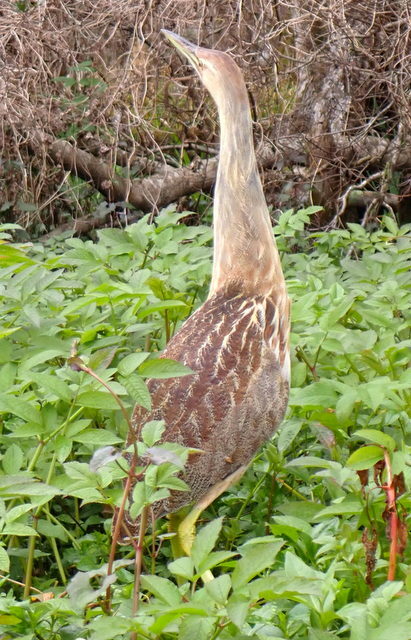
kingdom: Animalia
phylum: Chordata
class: Aves
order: Pelecaniformes
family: Ardeidae
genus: Botaurus
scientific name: Botaurus lentiginosus
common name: American bittern
